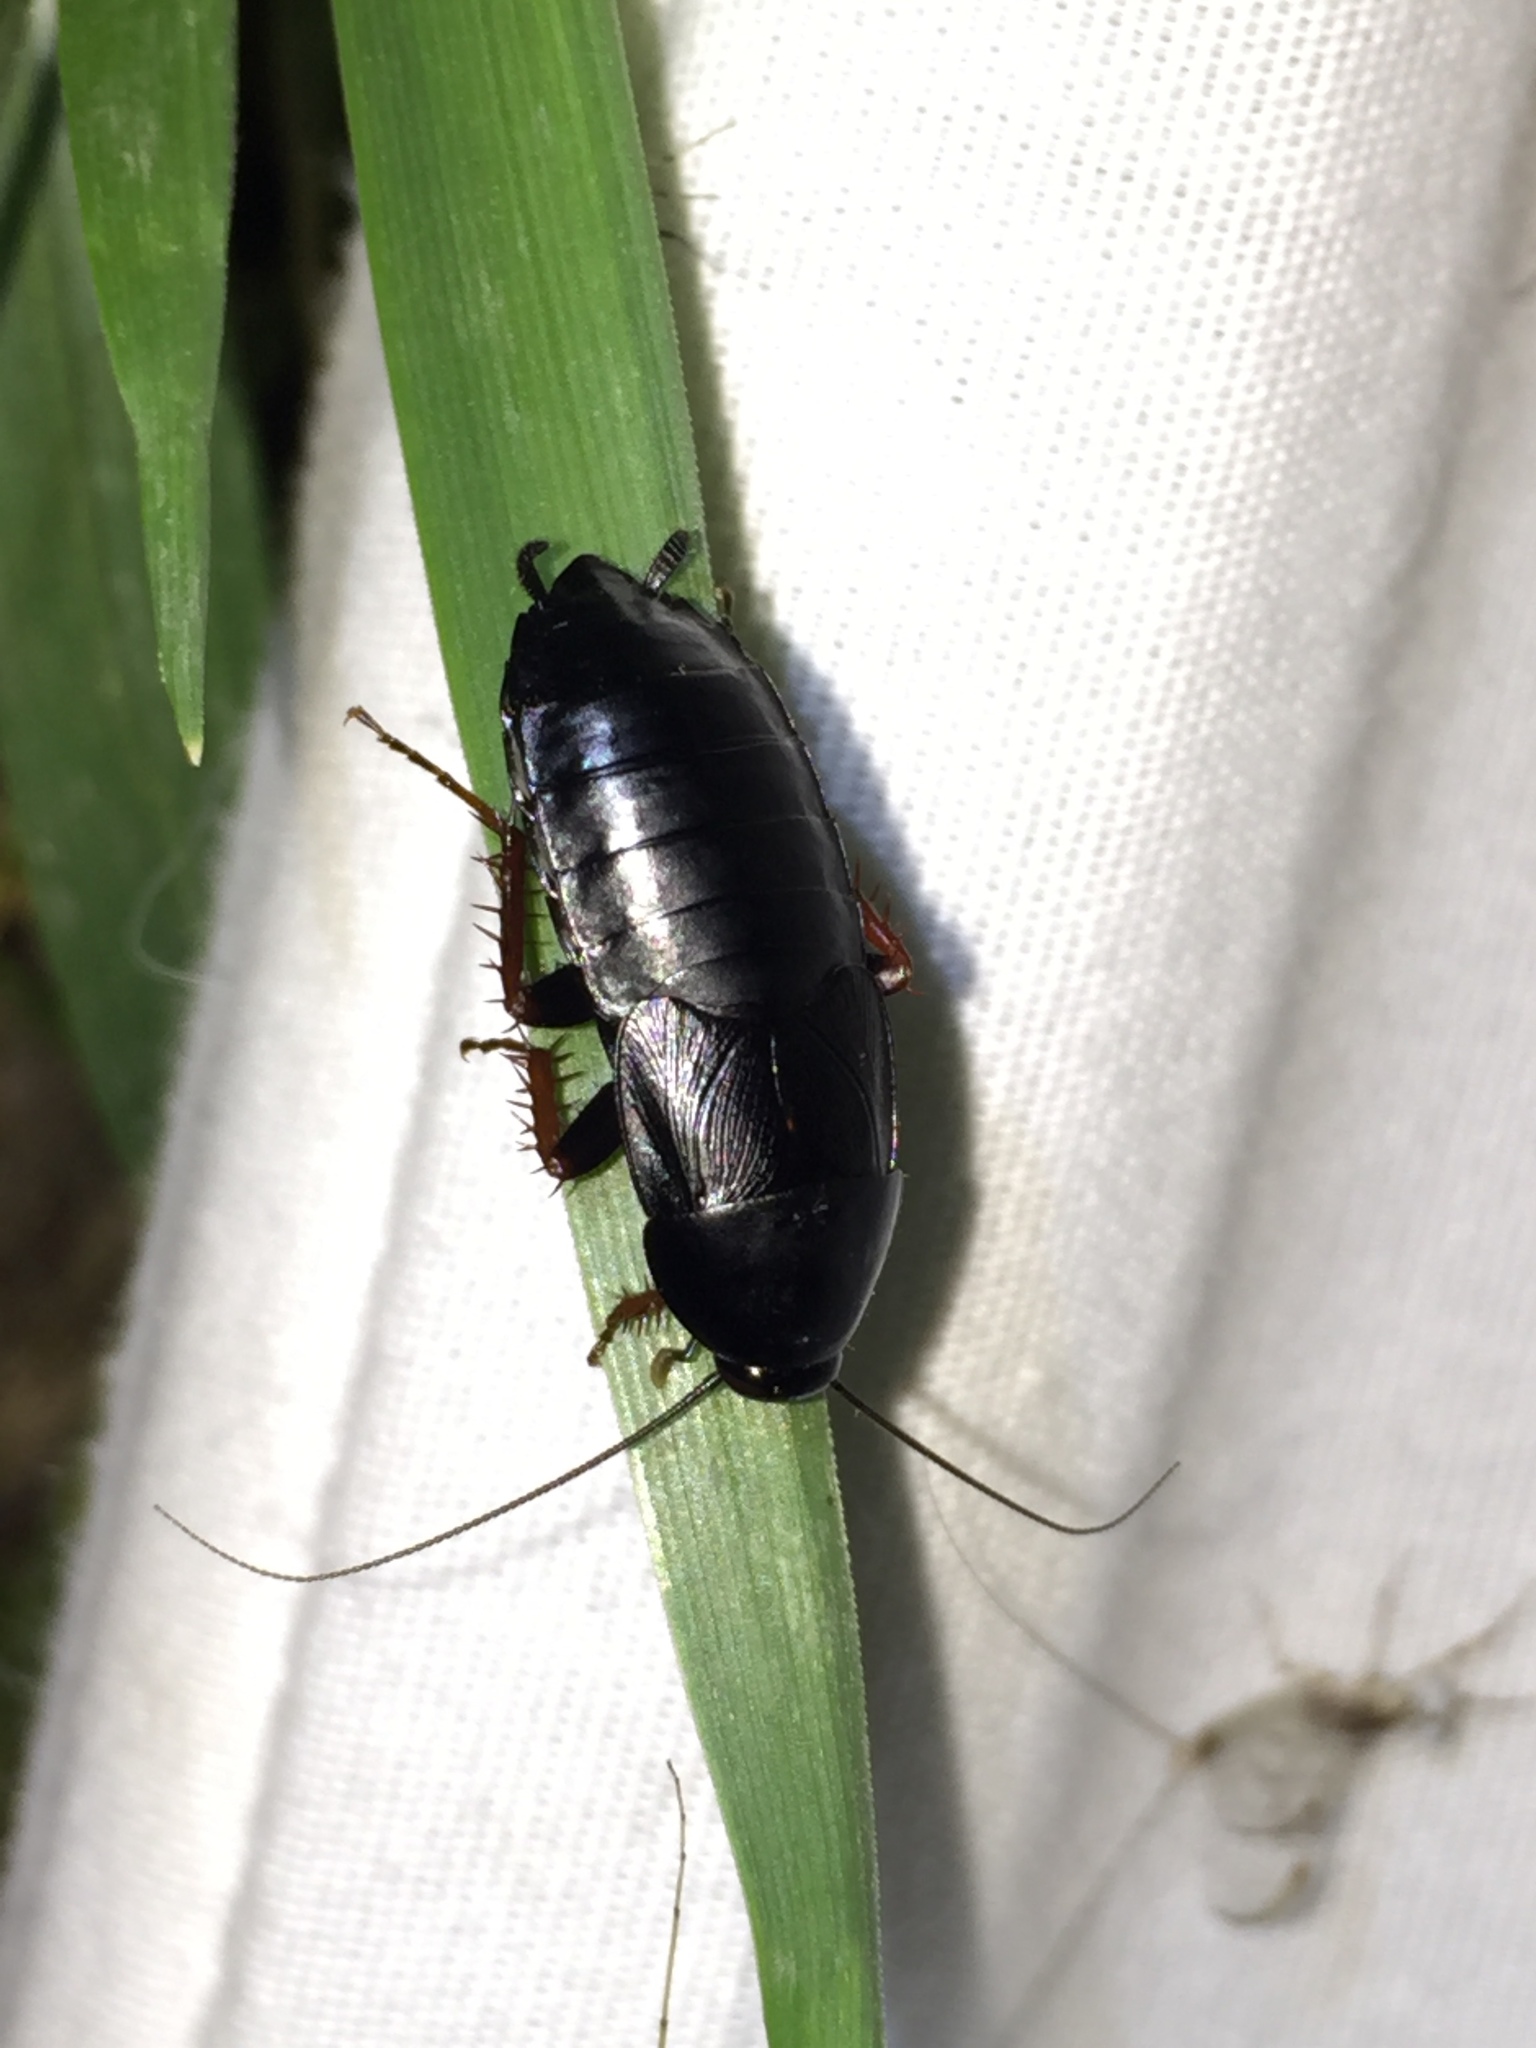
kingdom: Animalia
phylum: Arthropoda
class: Insecta
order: Blattodea
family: Ectobiidae
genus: Ischnoptera
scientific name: Ischnoptera deropeltiformis
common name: Dark wood cockroach
